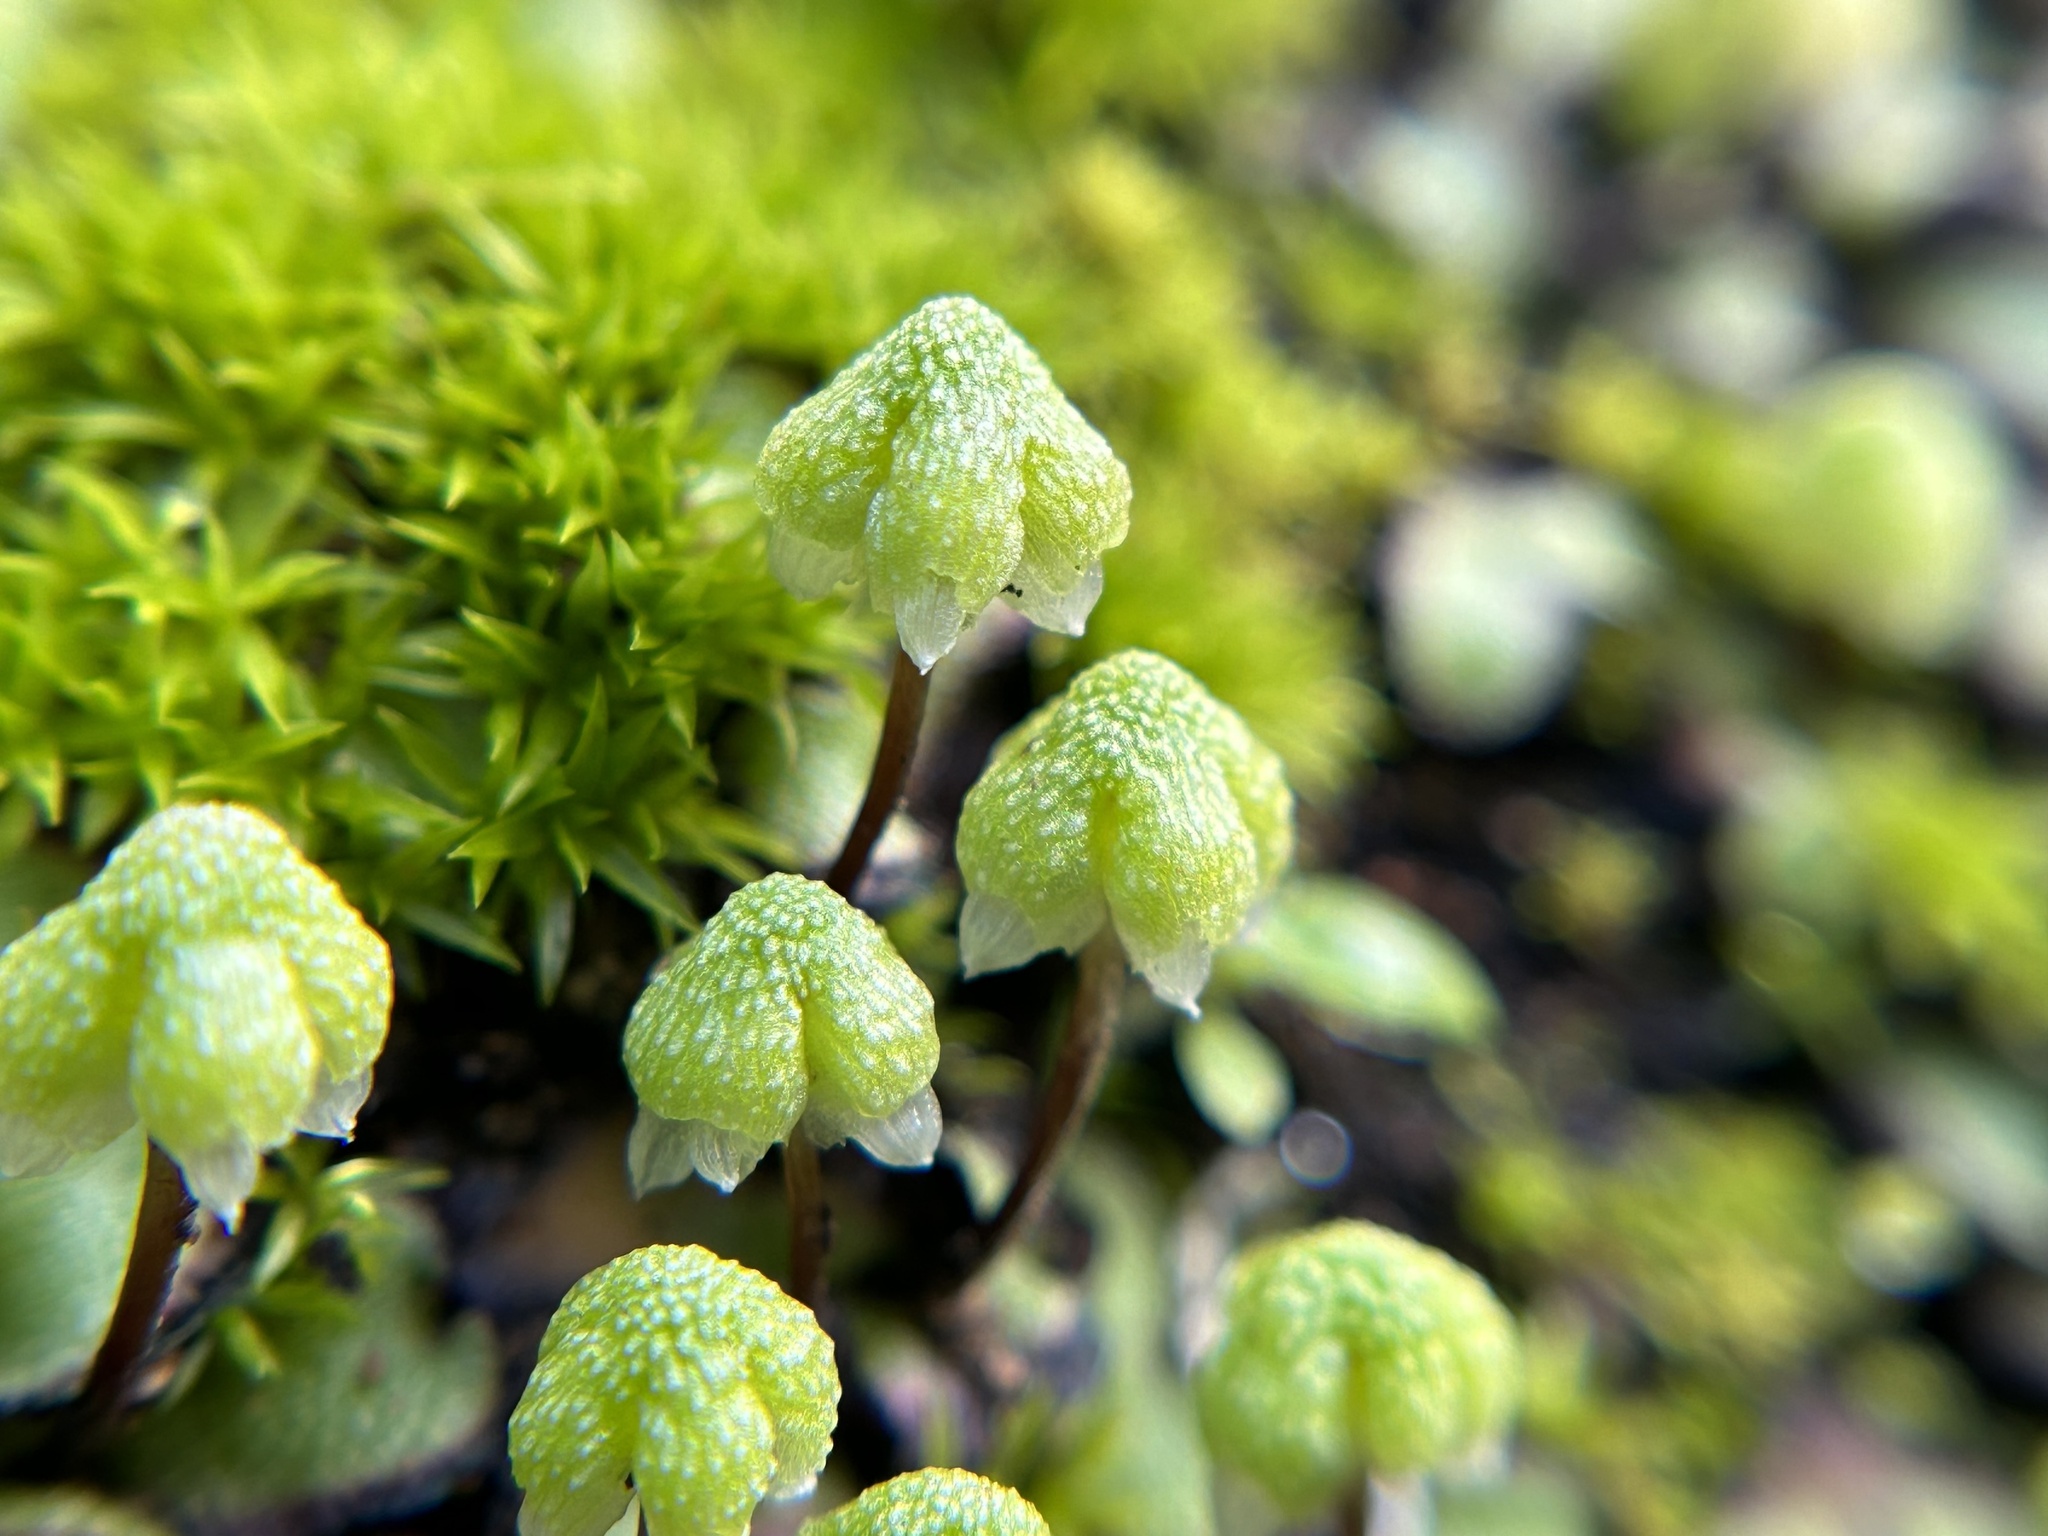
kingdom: Plantae
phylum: Marchantiophyta
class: Marchantiopsida
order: Marchantiales
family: Aytoniaceae
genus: Asterella
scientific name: Asterella californica
